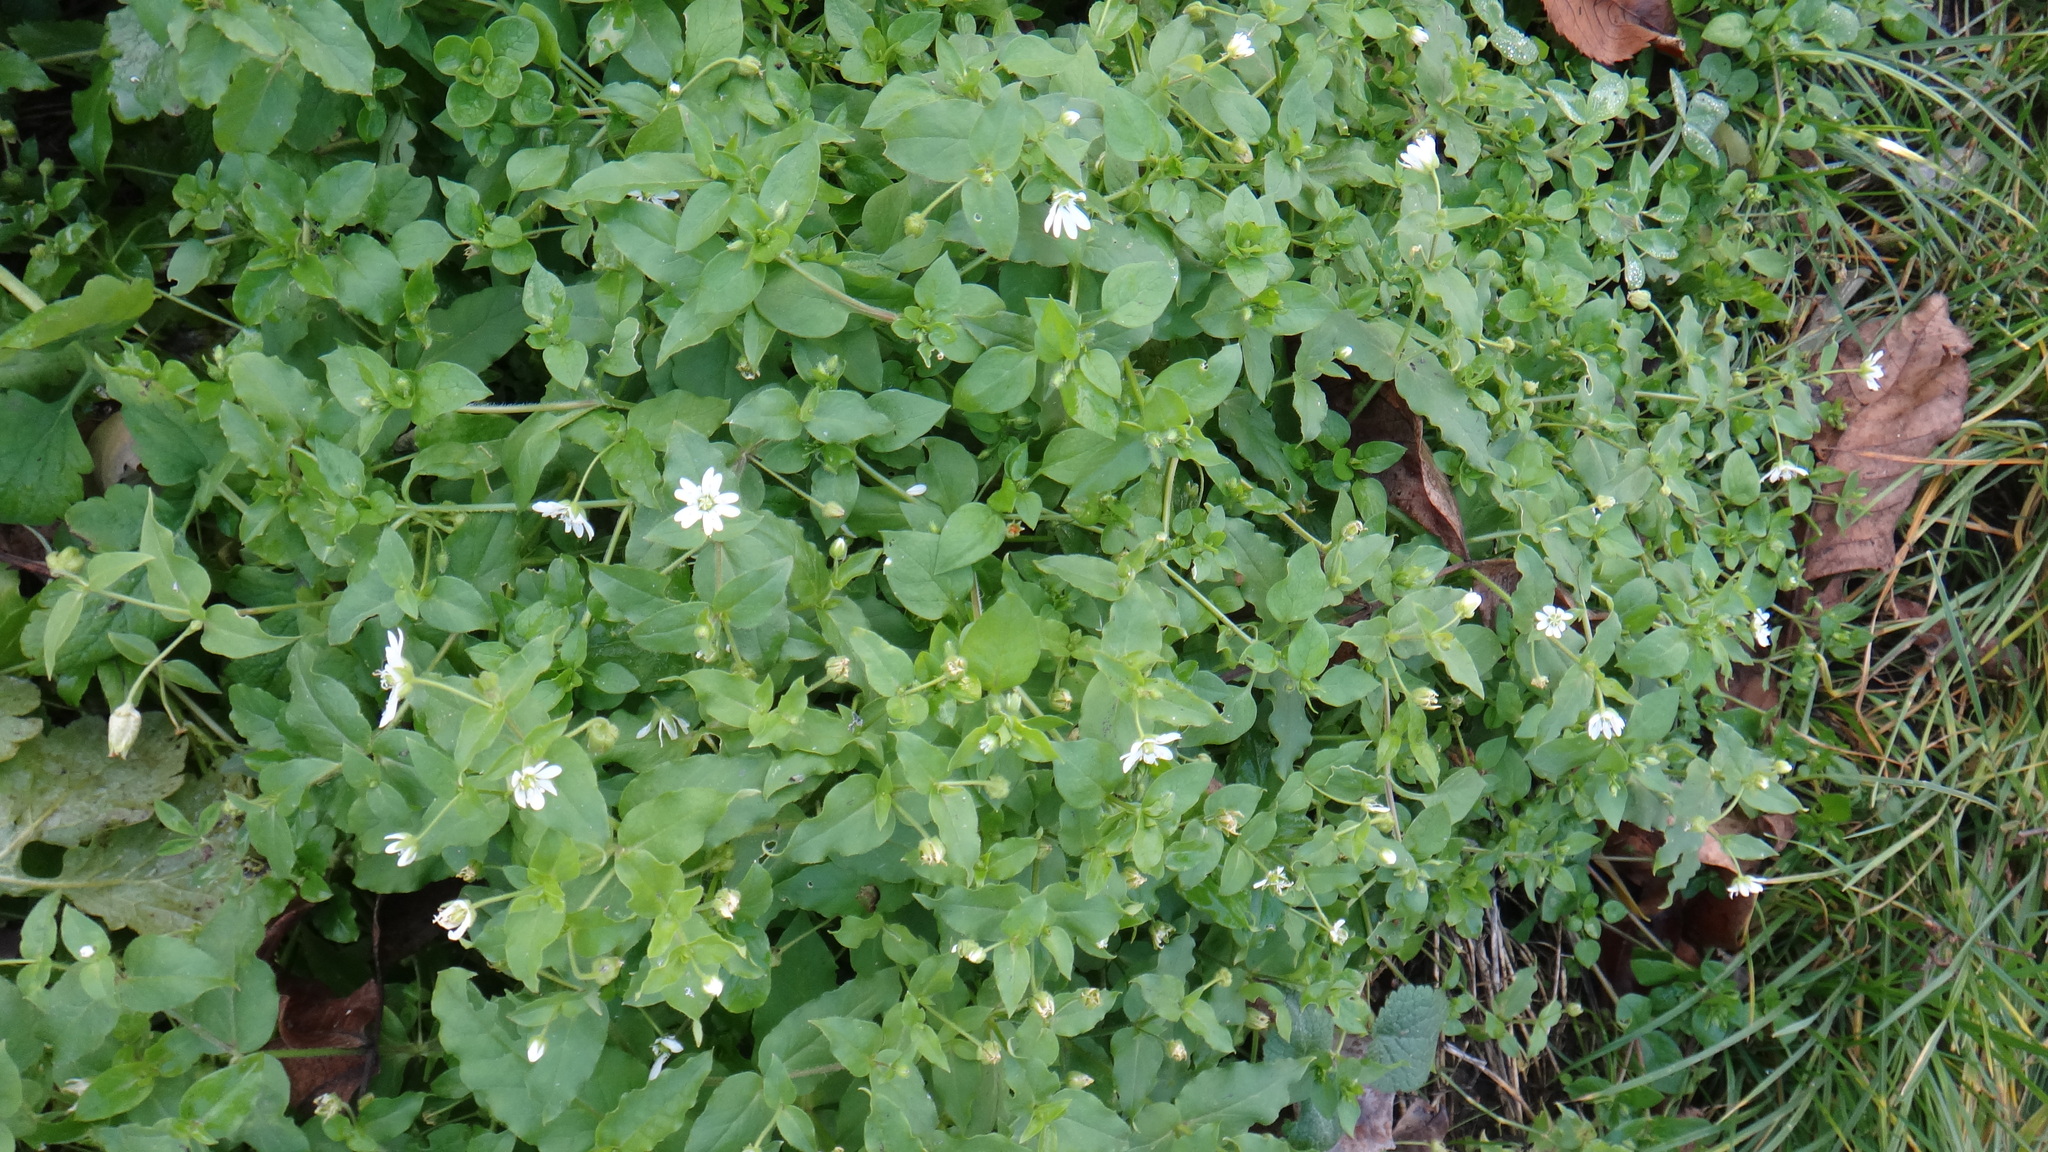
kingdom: Plantae
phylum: Tracheophyta
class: Magnoliopsida
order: Caryophyllales
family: Caryophyllaceae
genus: Stellaria
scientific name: Stellaria aquatica
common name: Water chickweed
